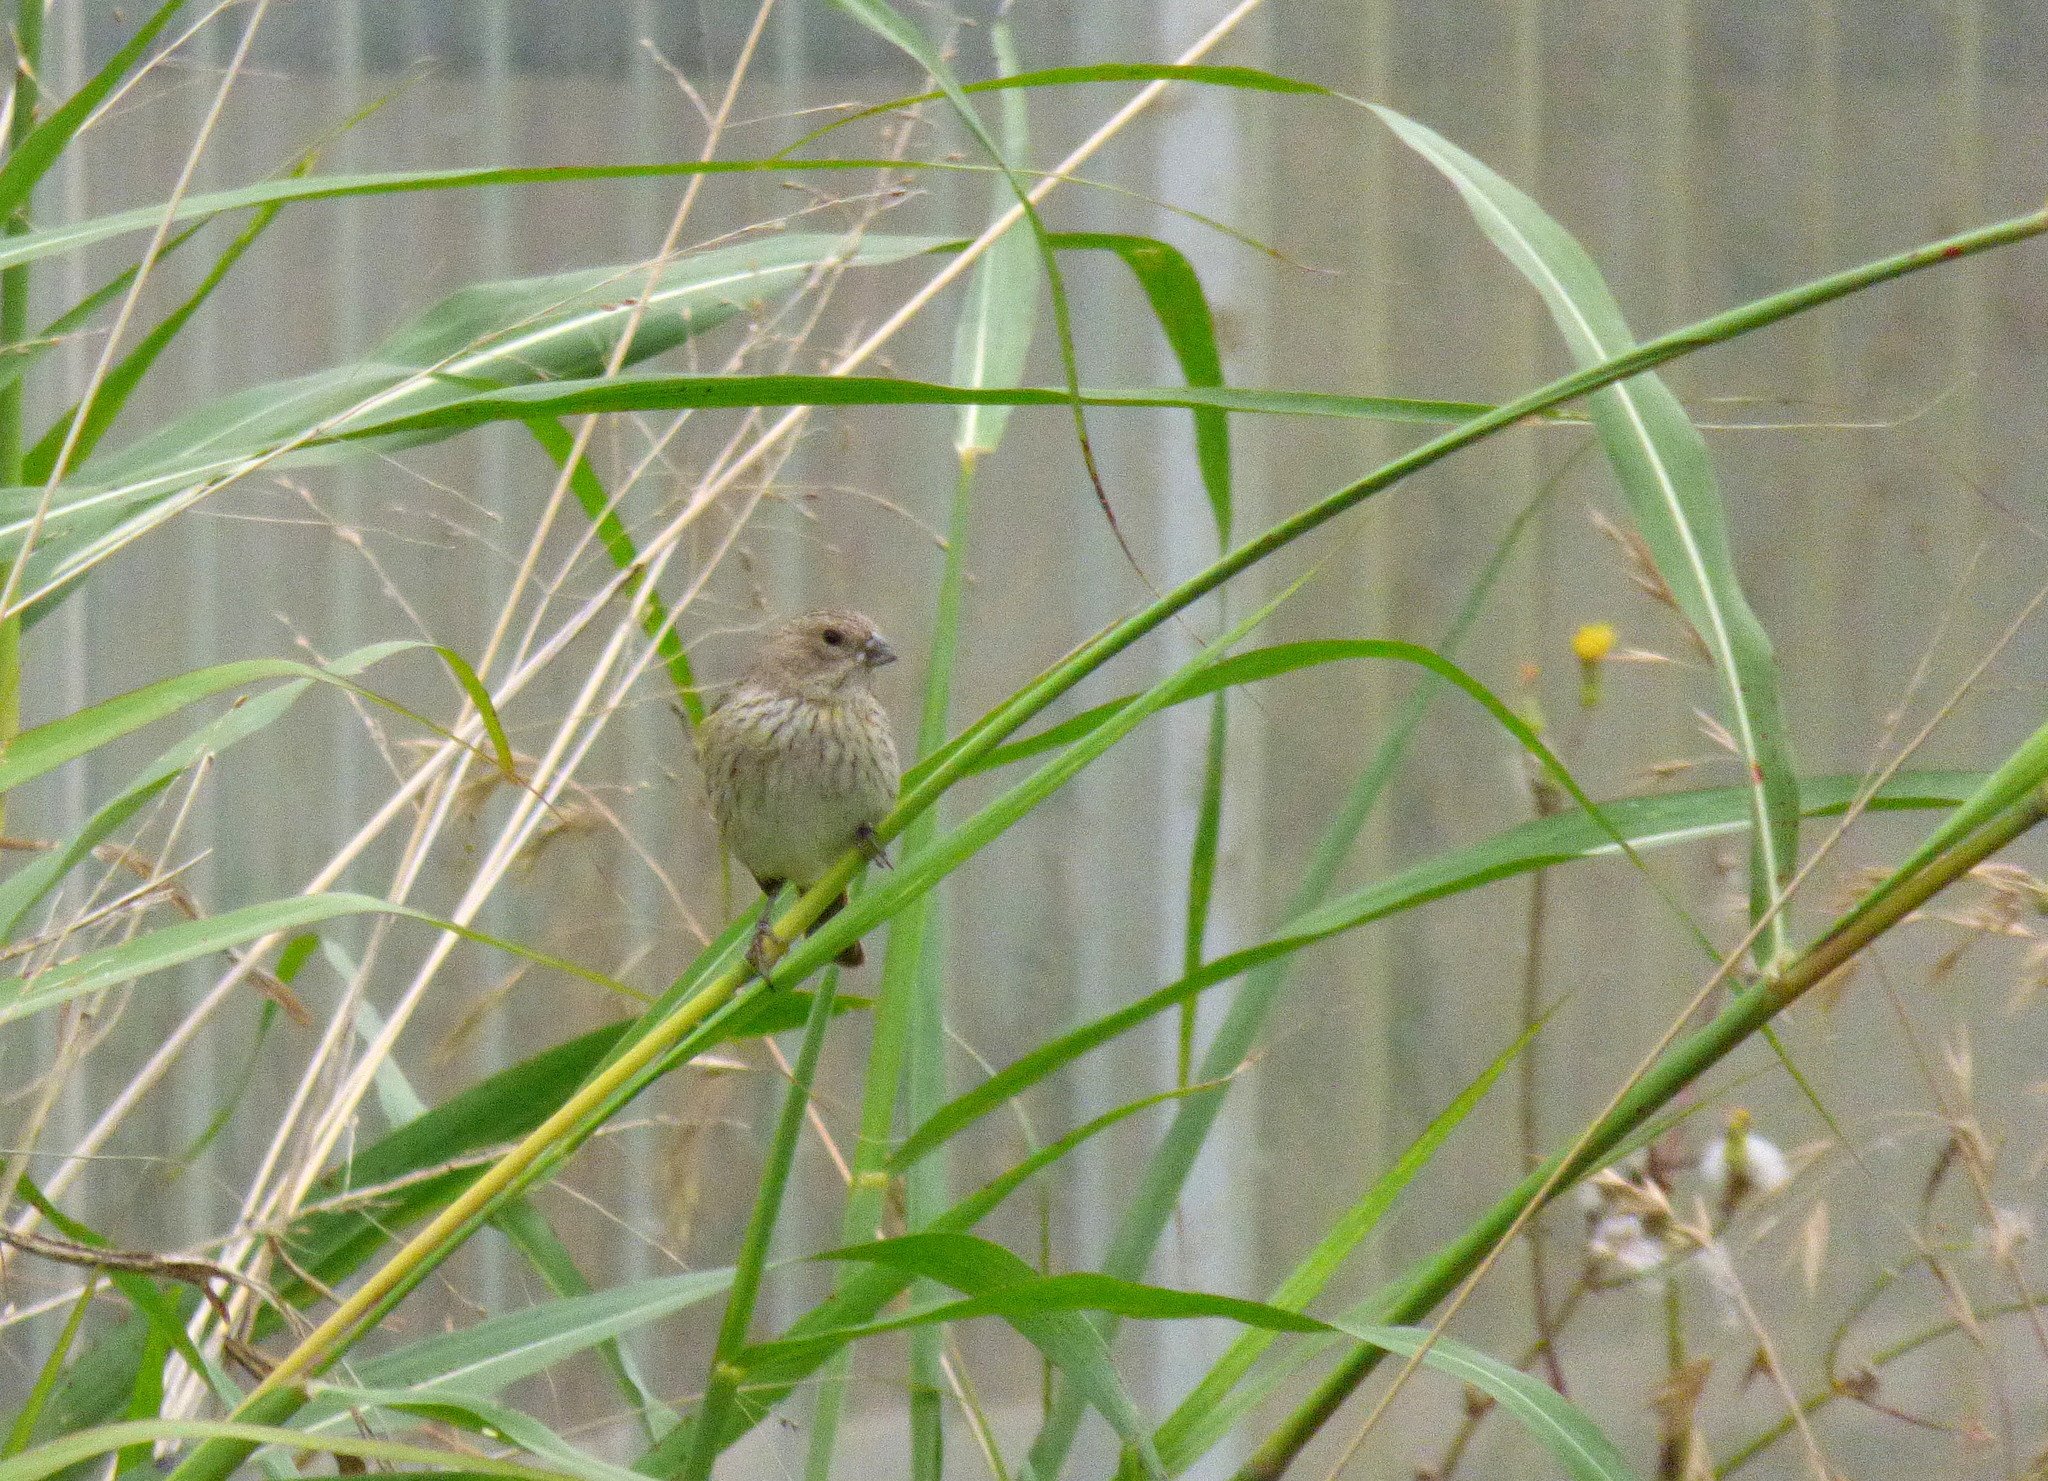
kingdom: Animalia
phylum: Chordata
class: Aves
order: Passeriformes
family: Thraupidae
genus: Sicalis
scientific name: Sicalis flaveola
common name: Saffron finch
